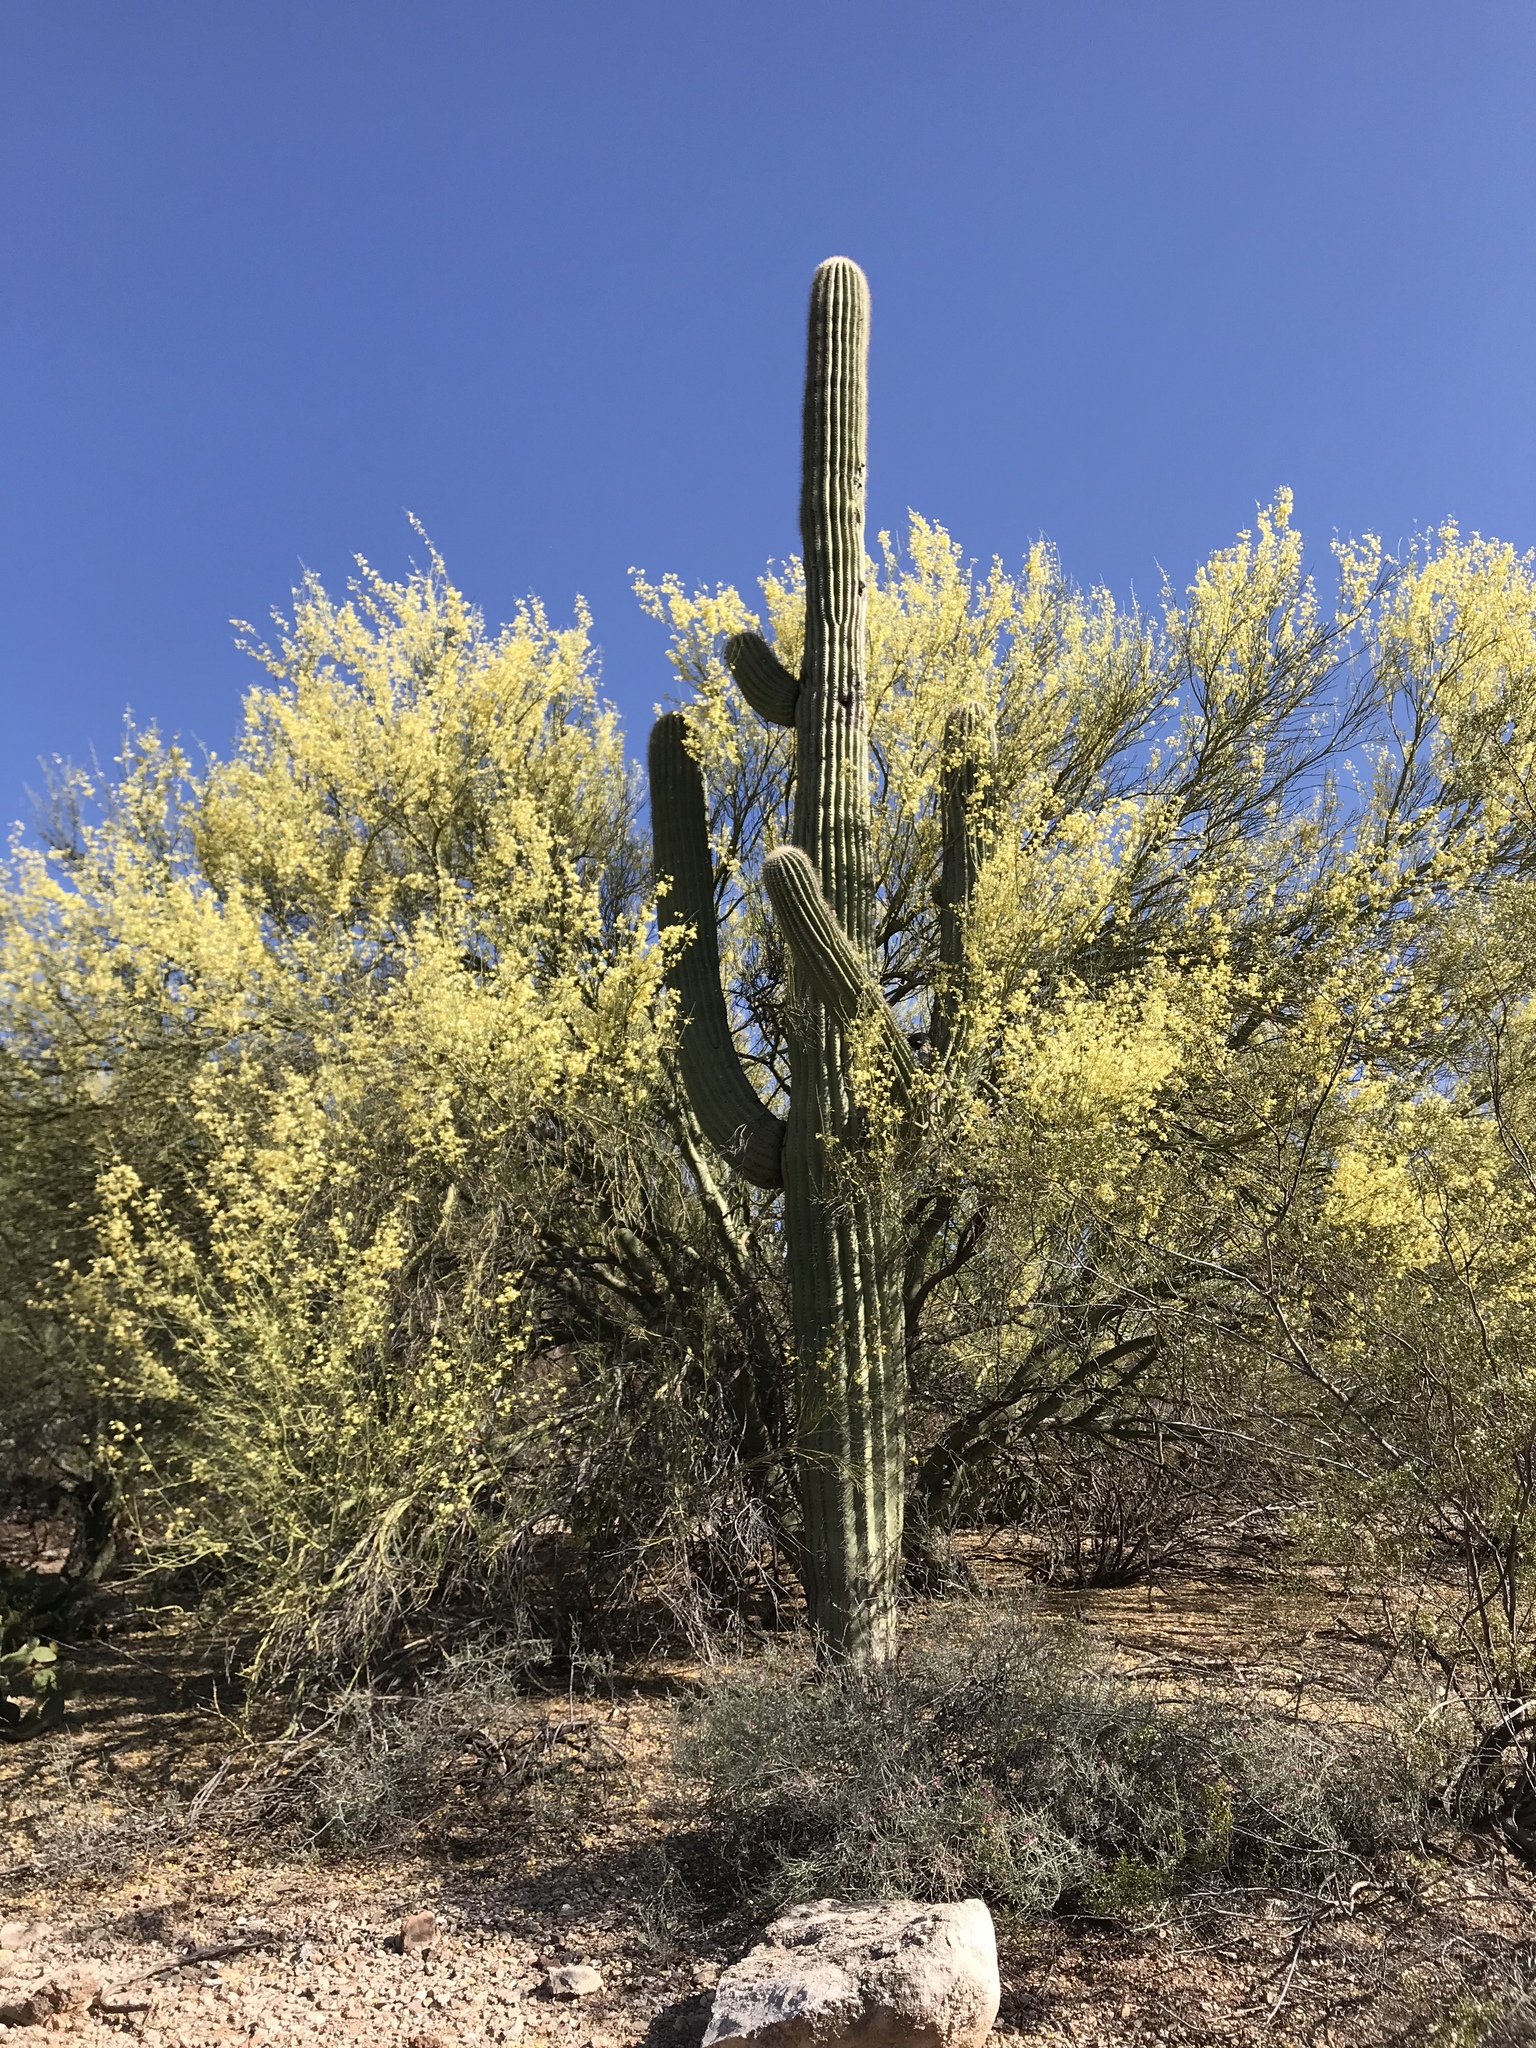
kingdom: Plantae
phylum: Tracheophyta
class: Magnoliopsida
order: Caryophyllales
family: Cactaceae
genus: Carnegiea
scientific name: Carnegiea gigantea
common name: Saguaro
